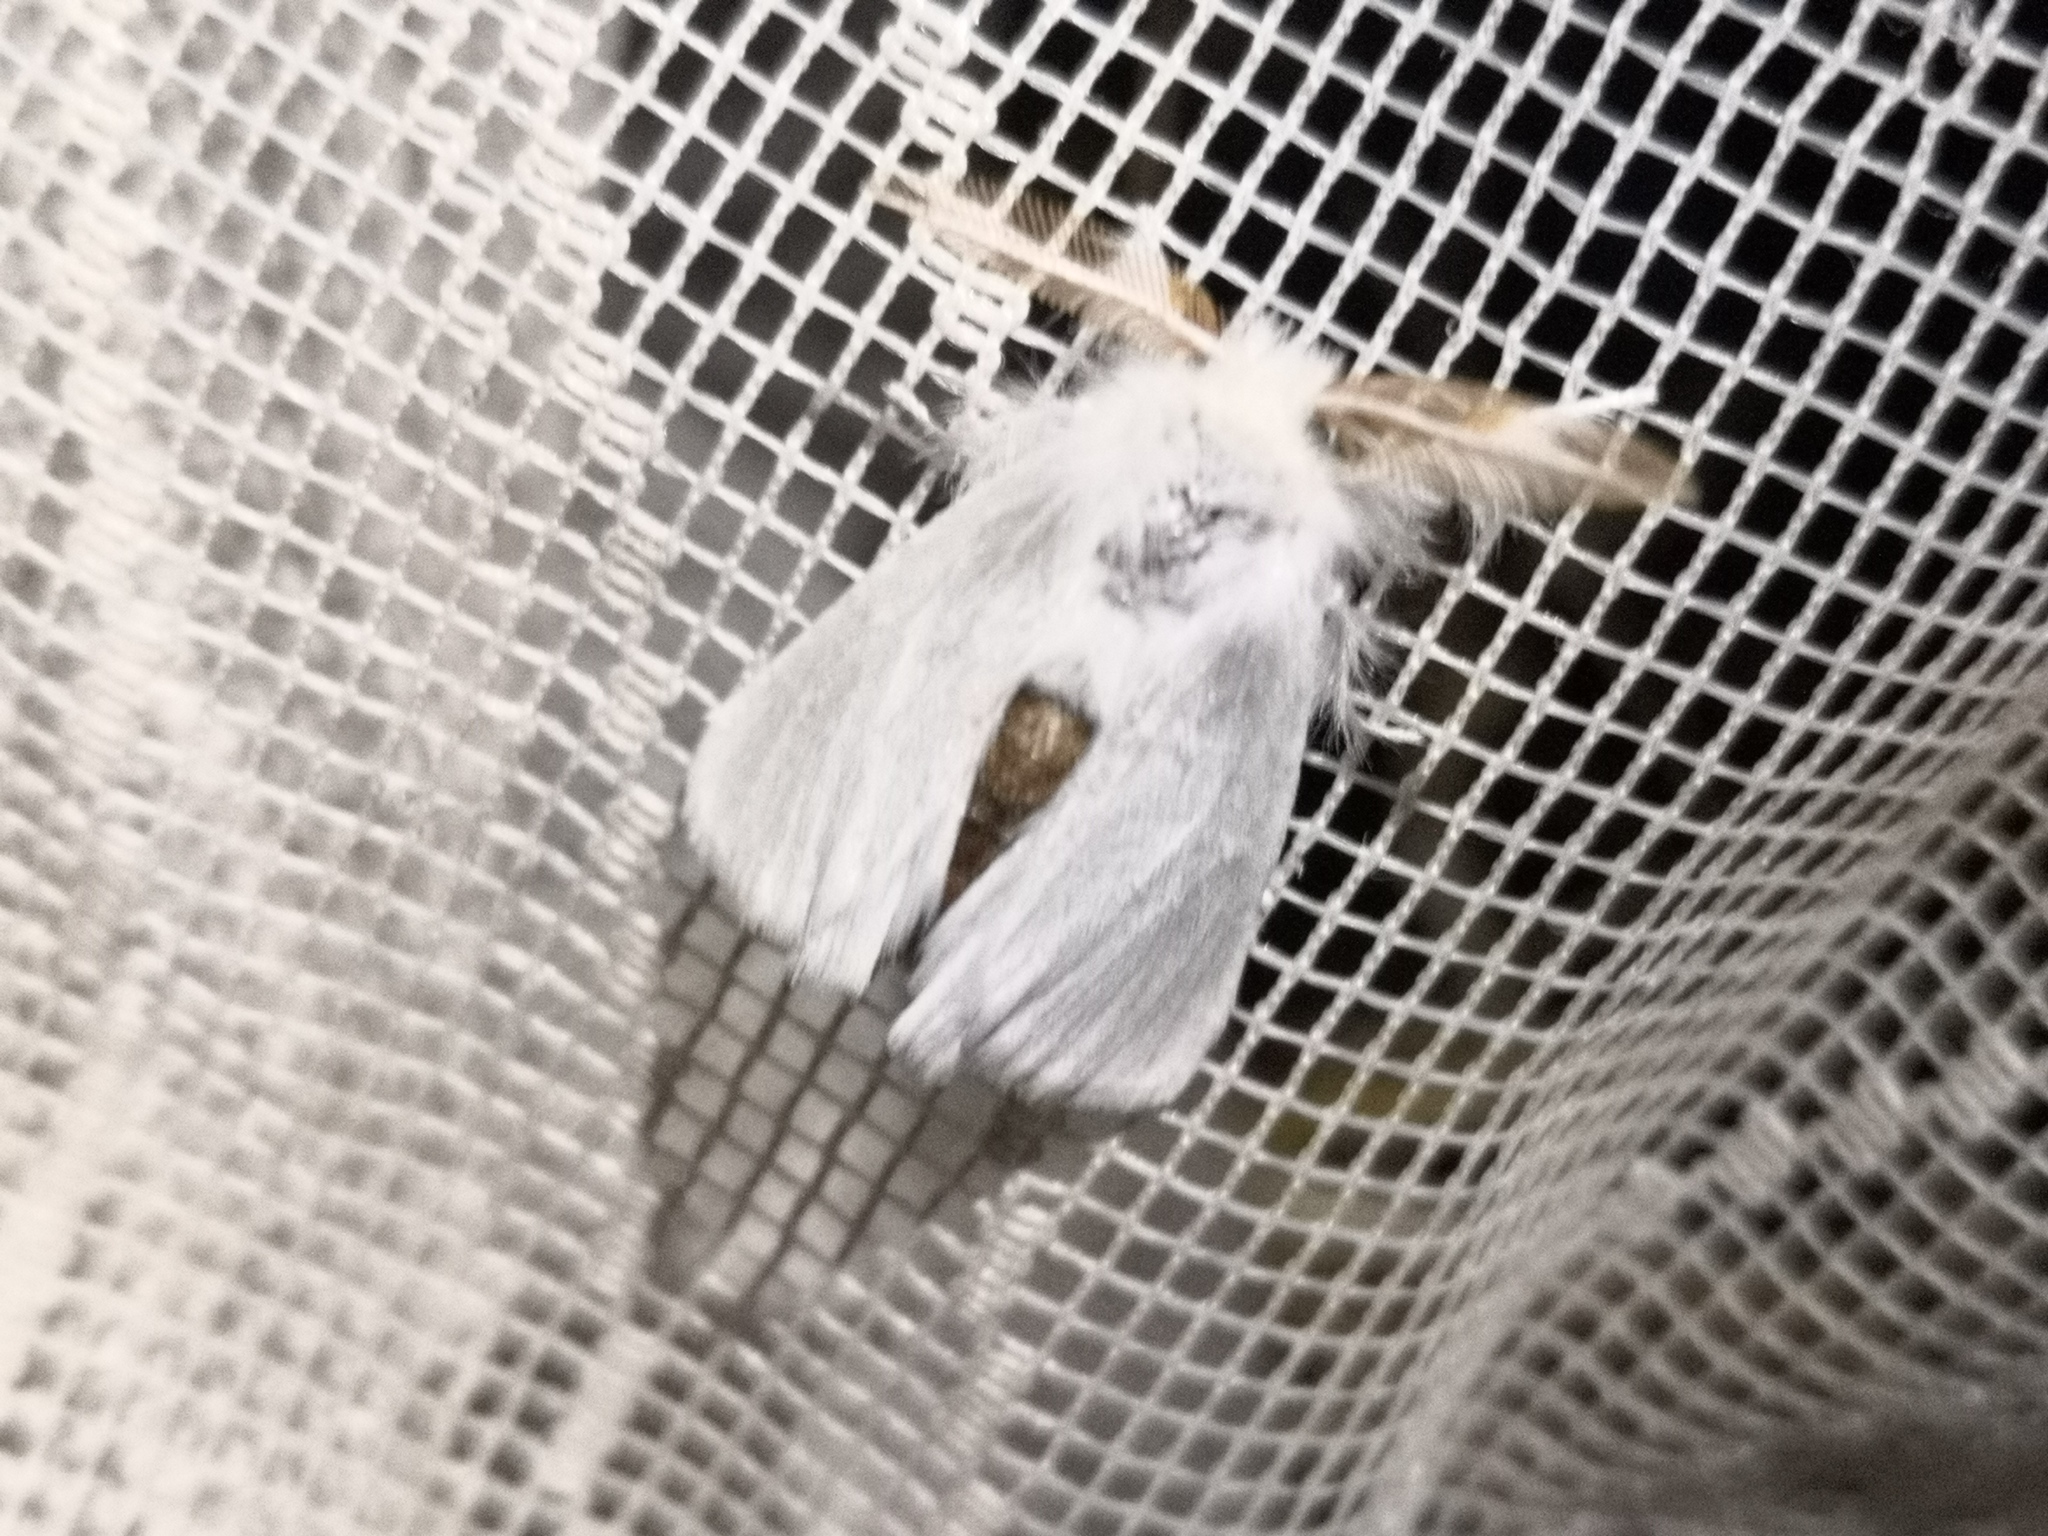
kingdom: Animalia
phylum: Arthropoda
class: Insecta
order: Lepidoptera
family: Erebidae
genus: Euproctis
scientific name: Euproctis chrysorrhoea
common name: Brown-tail
